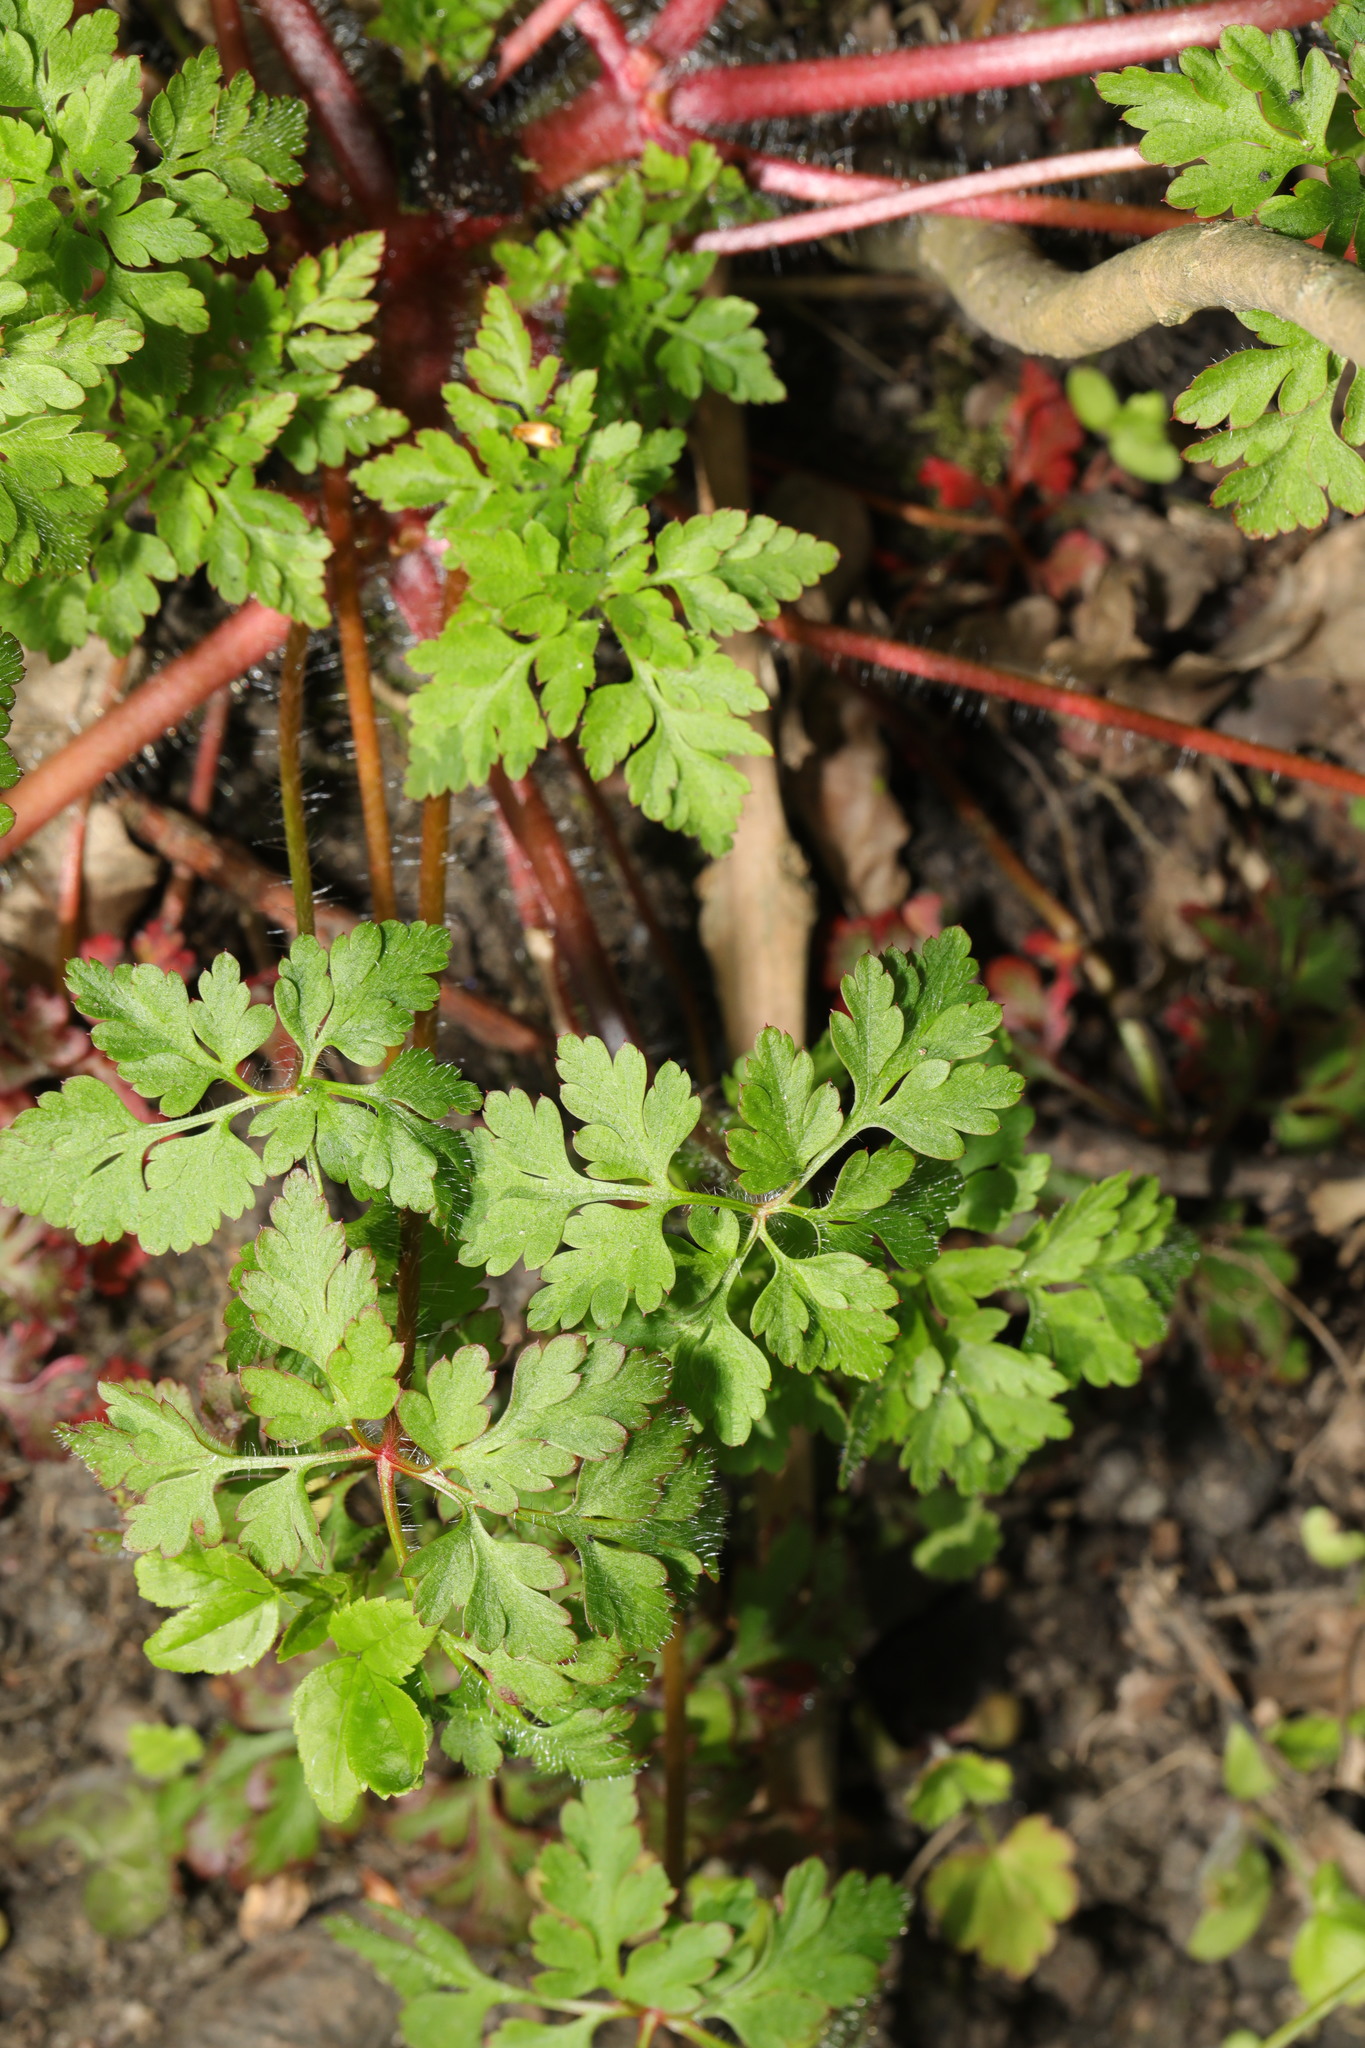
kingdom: Plantae
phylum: Tracheophyta
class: Magnoliopsida
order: Geraniales
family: Geraniaceae
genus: Geranium
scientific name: Geranium robertianum
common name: Herb-robert
